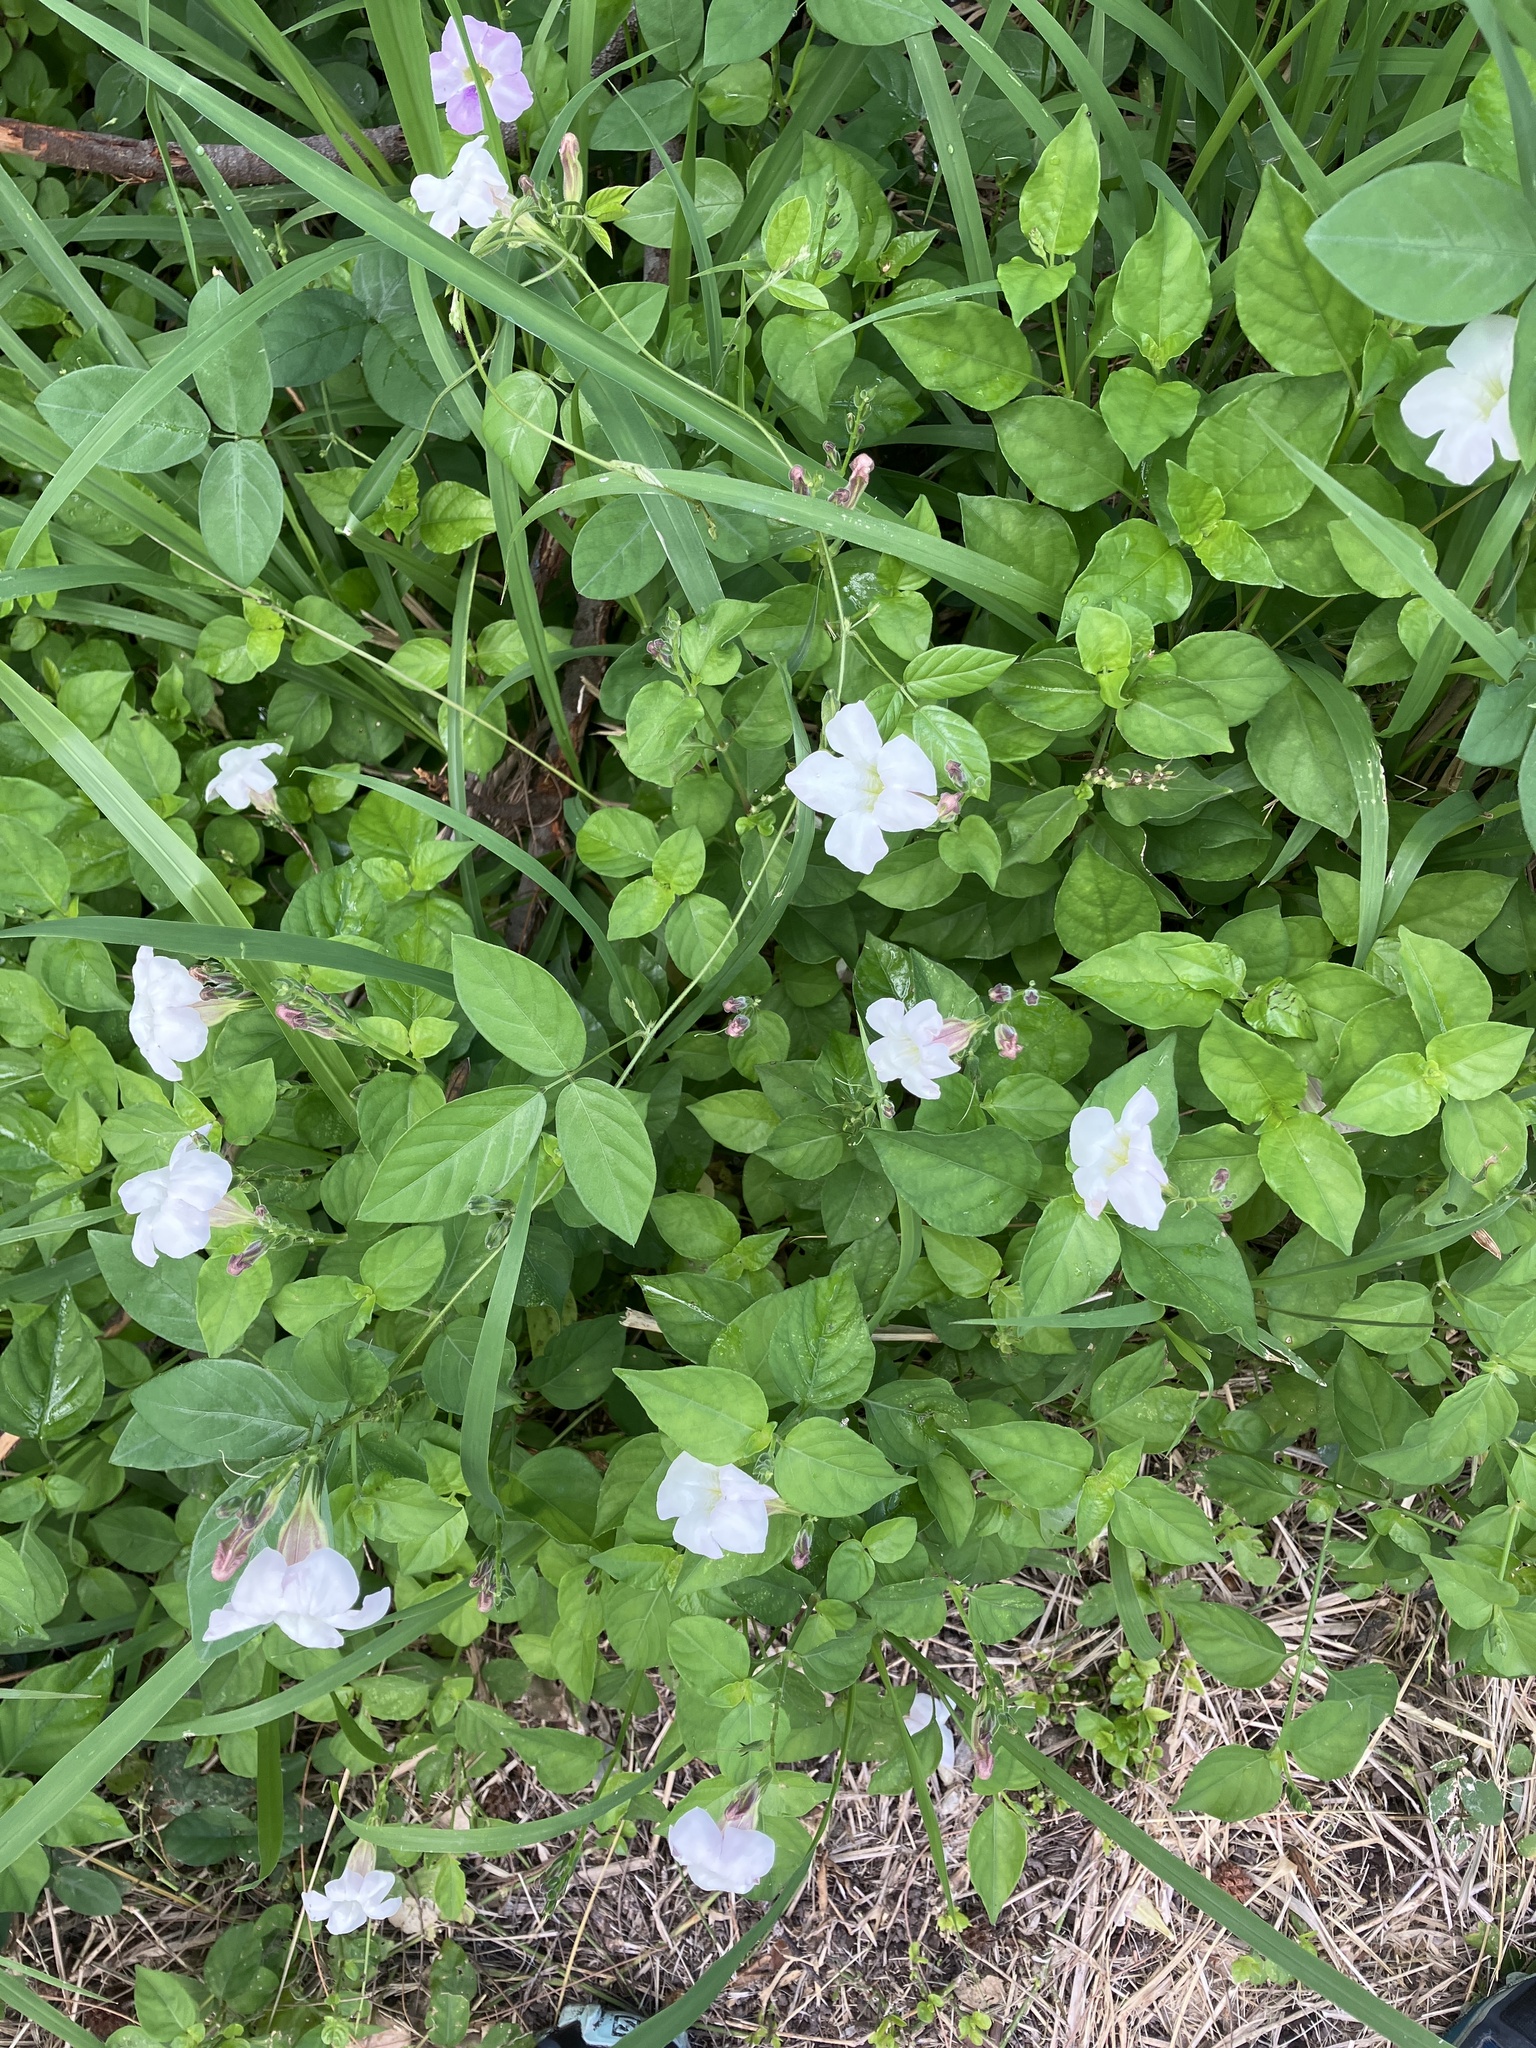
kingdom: Plantae
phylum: Tracheophyta
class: Magnoliopsida
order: Lamiales
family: Acanthaceae
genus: Asystasia
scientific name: Asystasia gangetica
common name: Chinese violet
